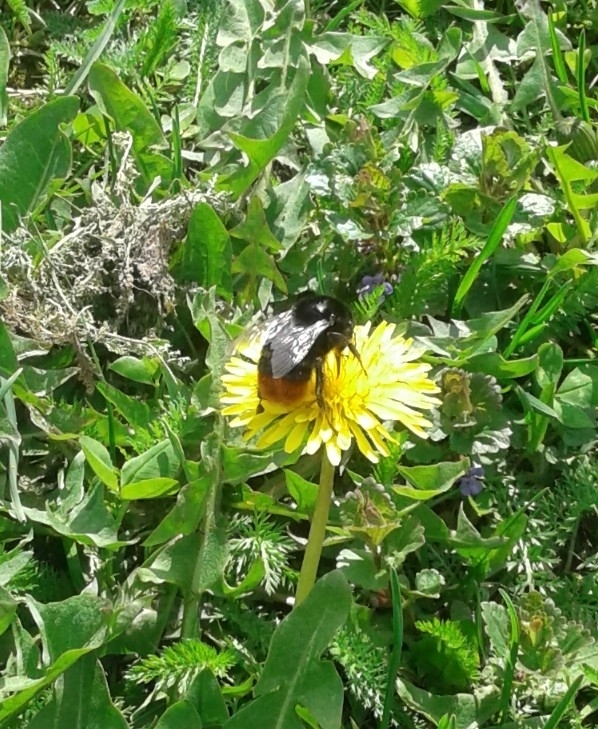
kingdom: Animalia
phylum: Arthropoda
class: Insecta
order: Hymenoptera
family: Apidae
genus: Bombus
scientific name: Bombus
